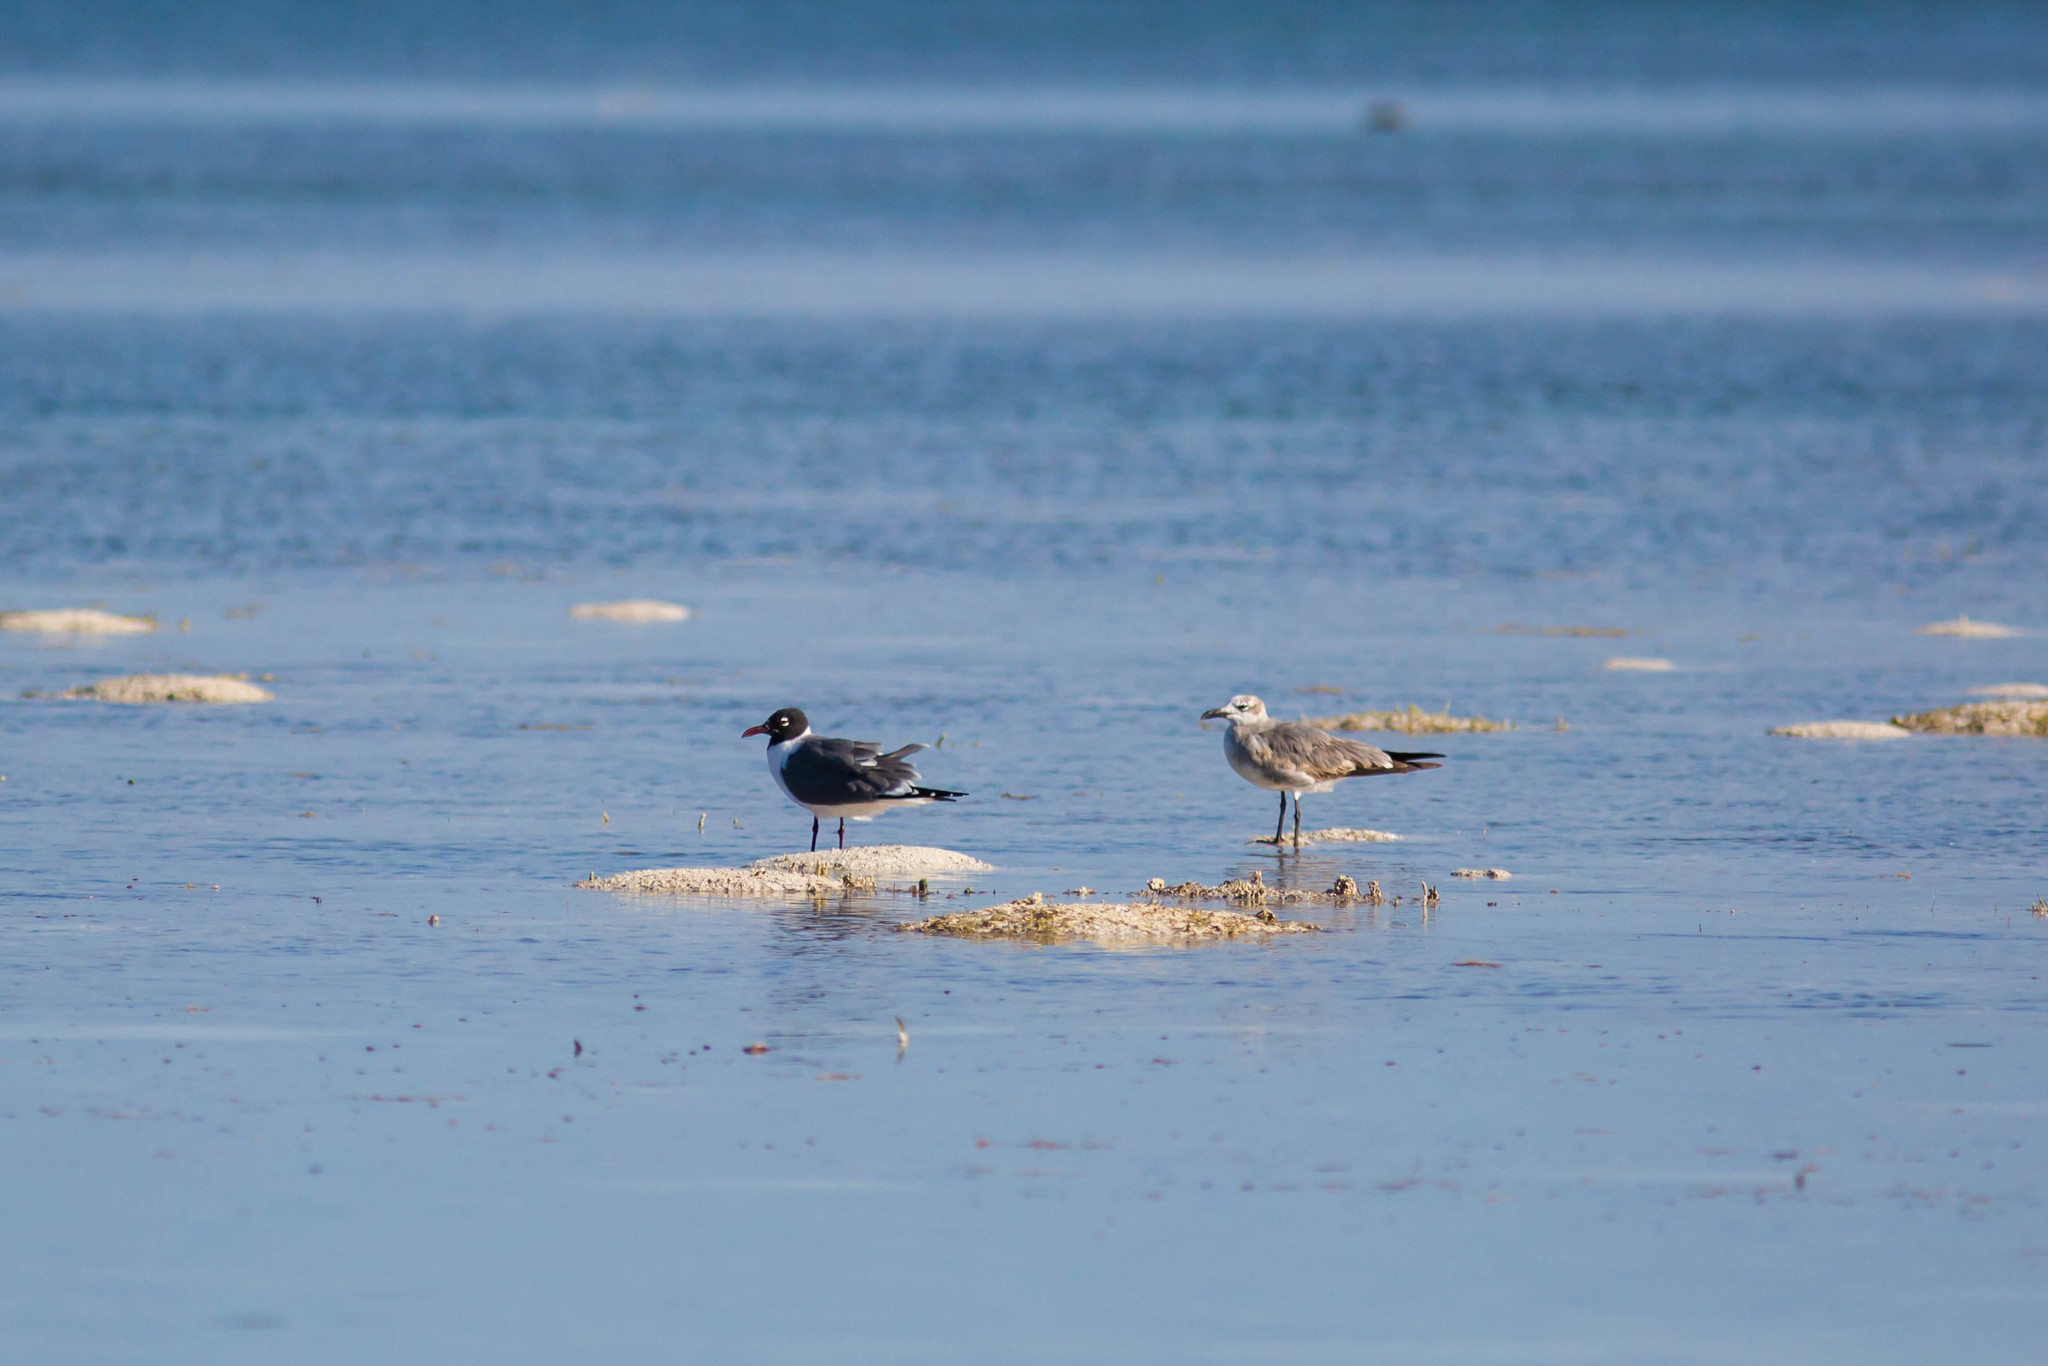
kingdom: Animalia
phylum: Chordata
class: Aves
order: Charadriiformes
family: Laridae
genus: Leucophaeus
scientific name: Leucophaeus atricilla
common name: Laughing gull
